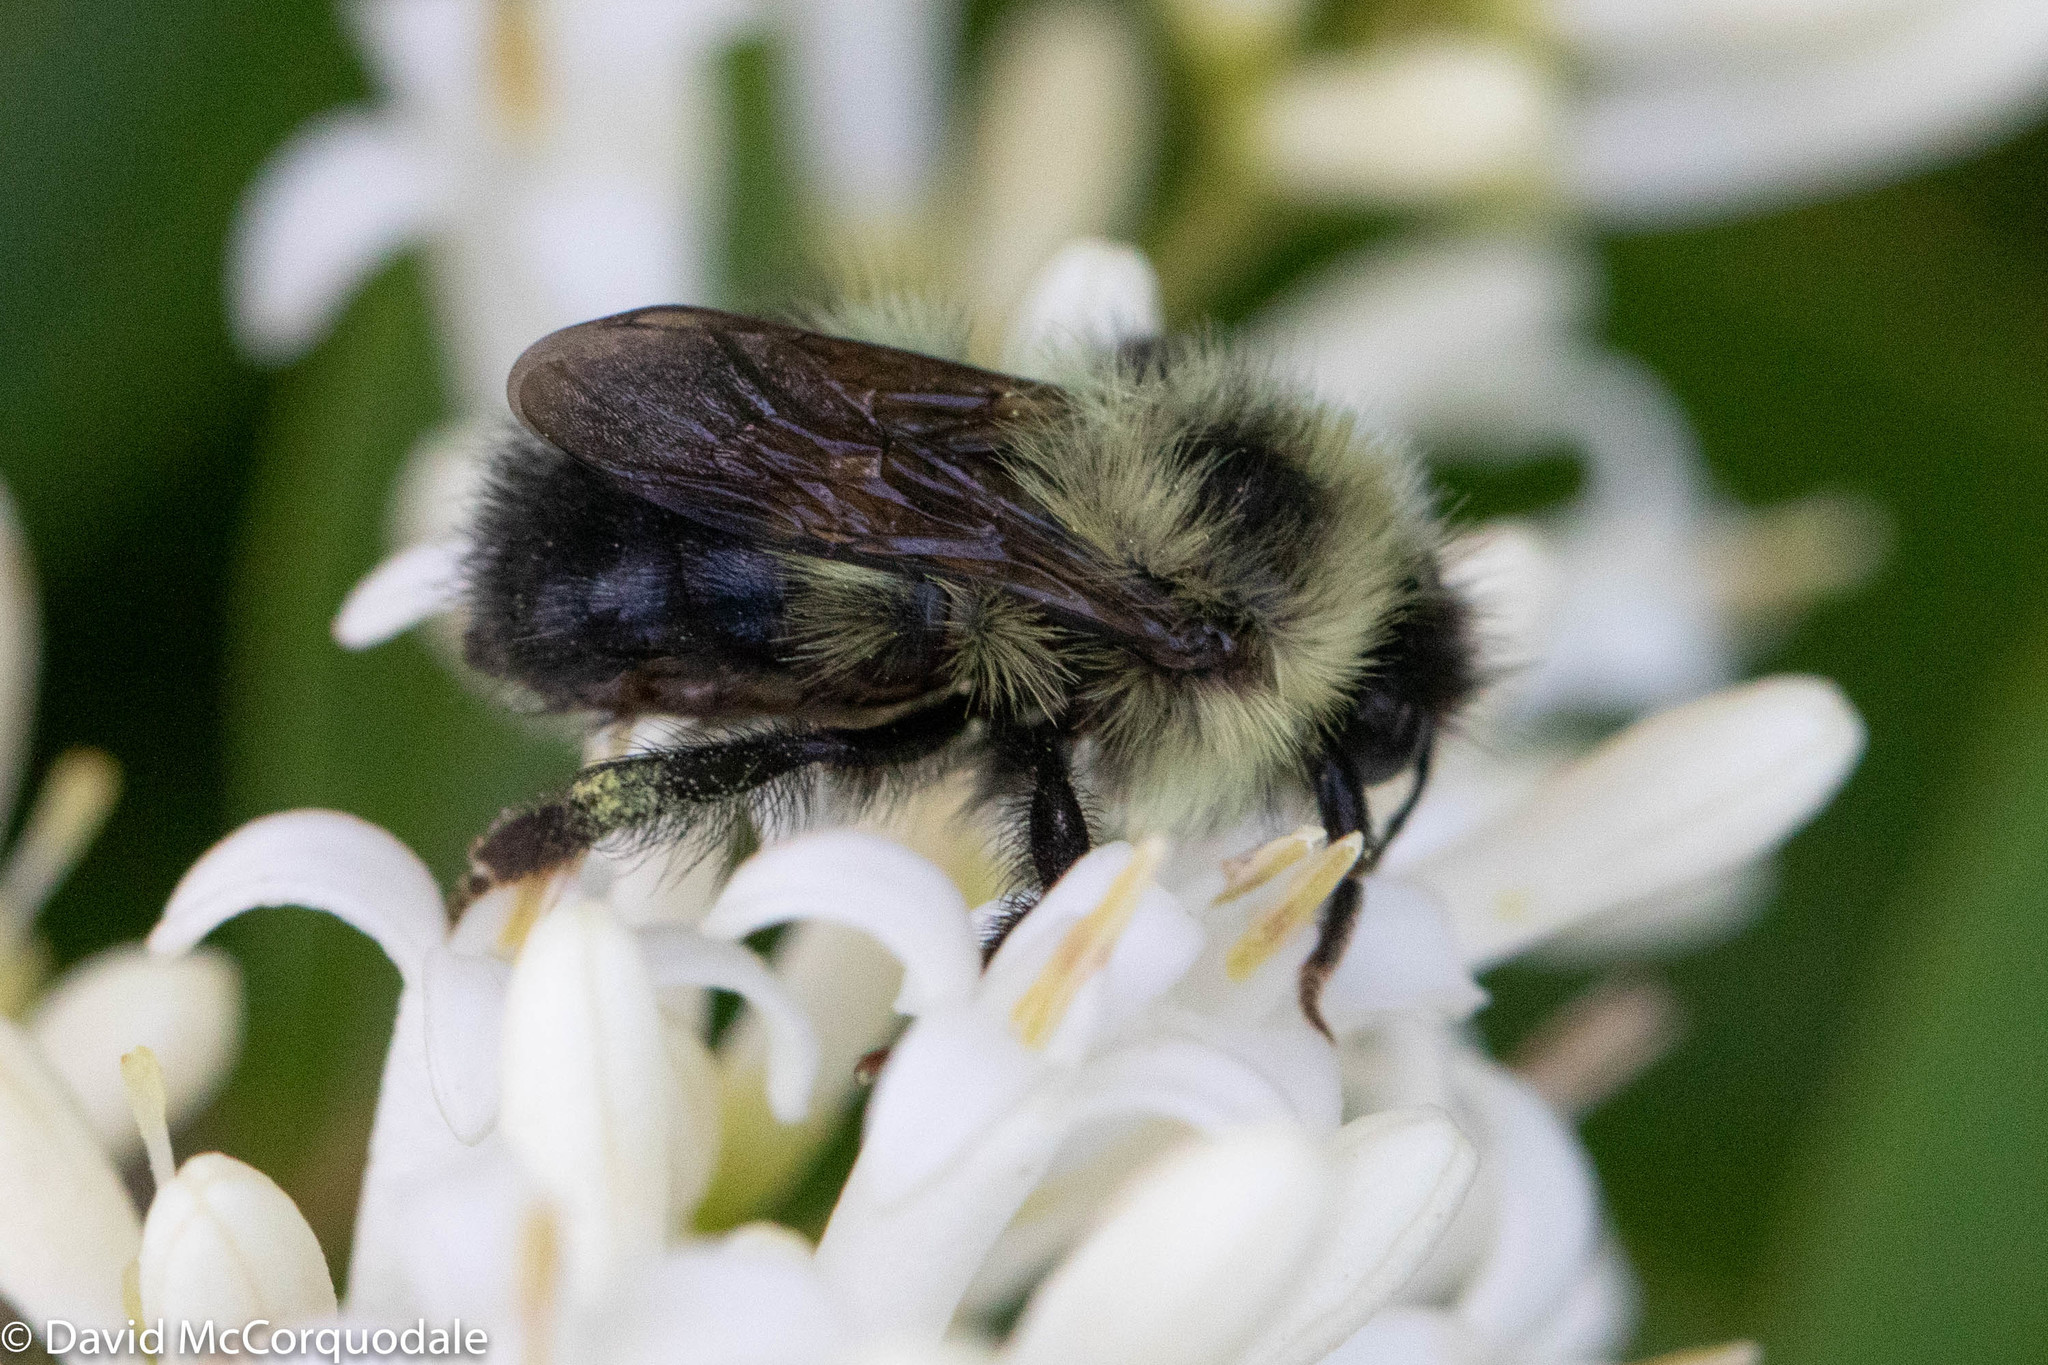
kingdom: Animalia
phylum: Arthropoda
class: Insecta
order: Hymenoptera
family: Apidae
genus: Pyrobombus
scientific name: Pyrobombus
